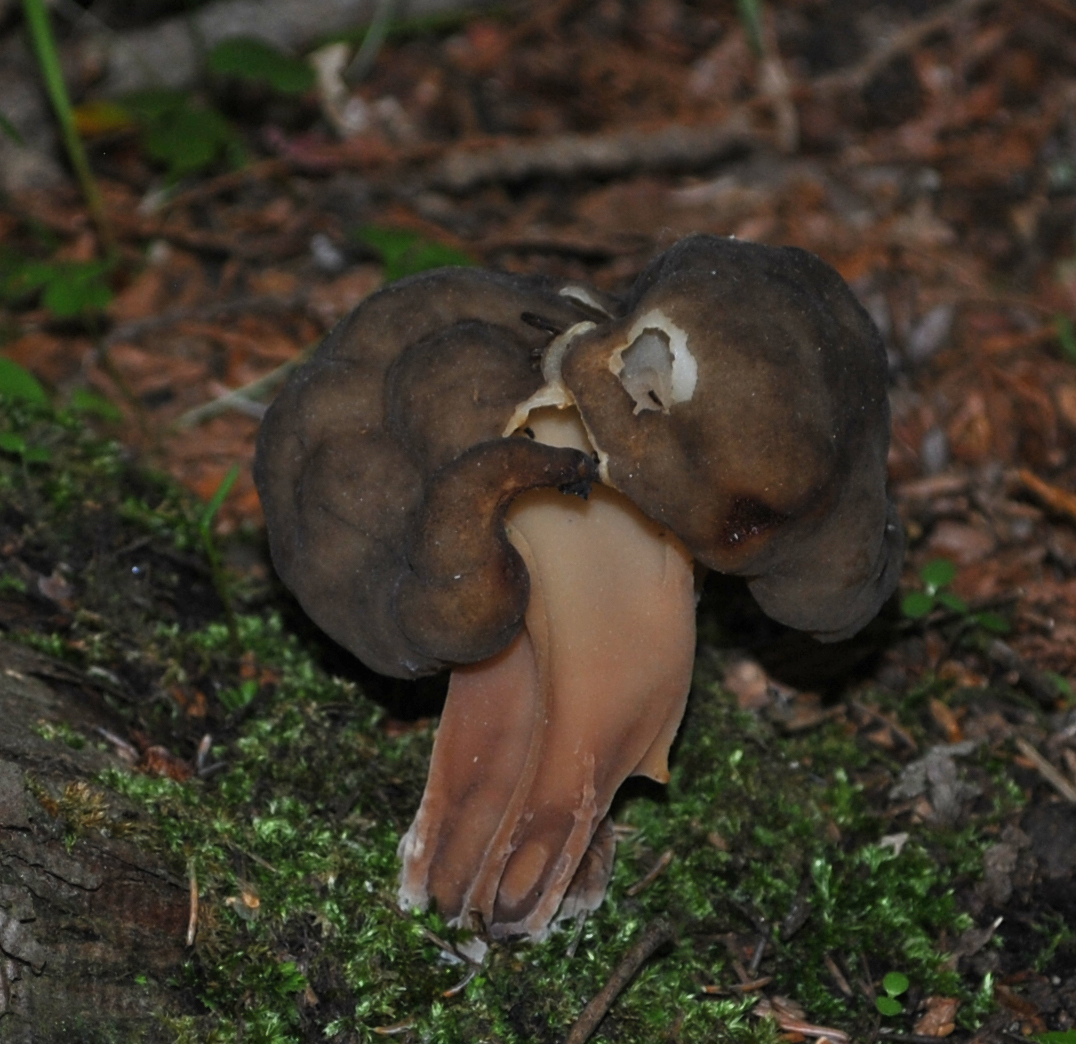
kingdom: Fungi
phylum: Ascomycota
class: Pezizomycetes
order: Pezizales
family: Discinaceae
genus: Gyromitra
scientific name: Gyromitra sphaerospora
